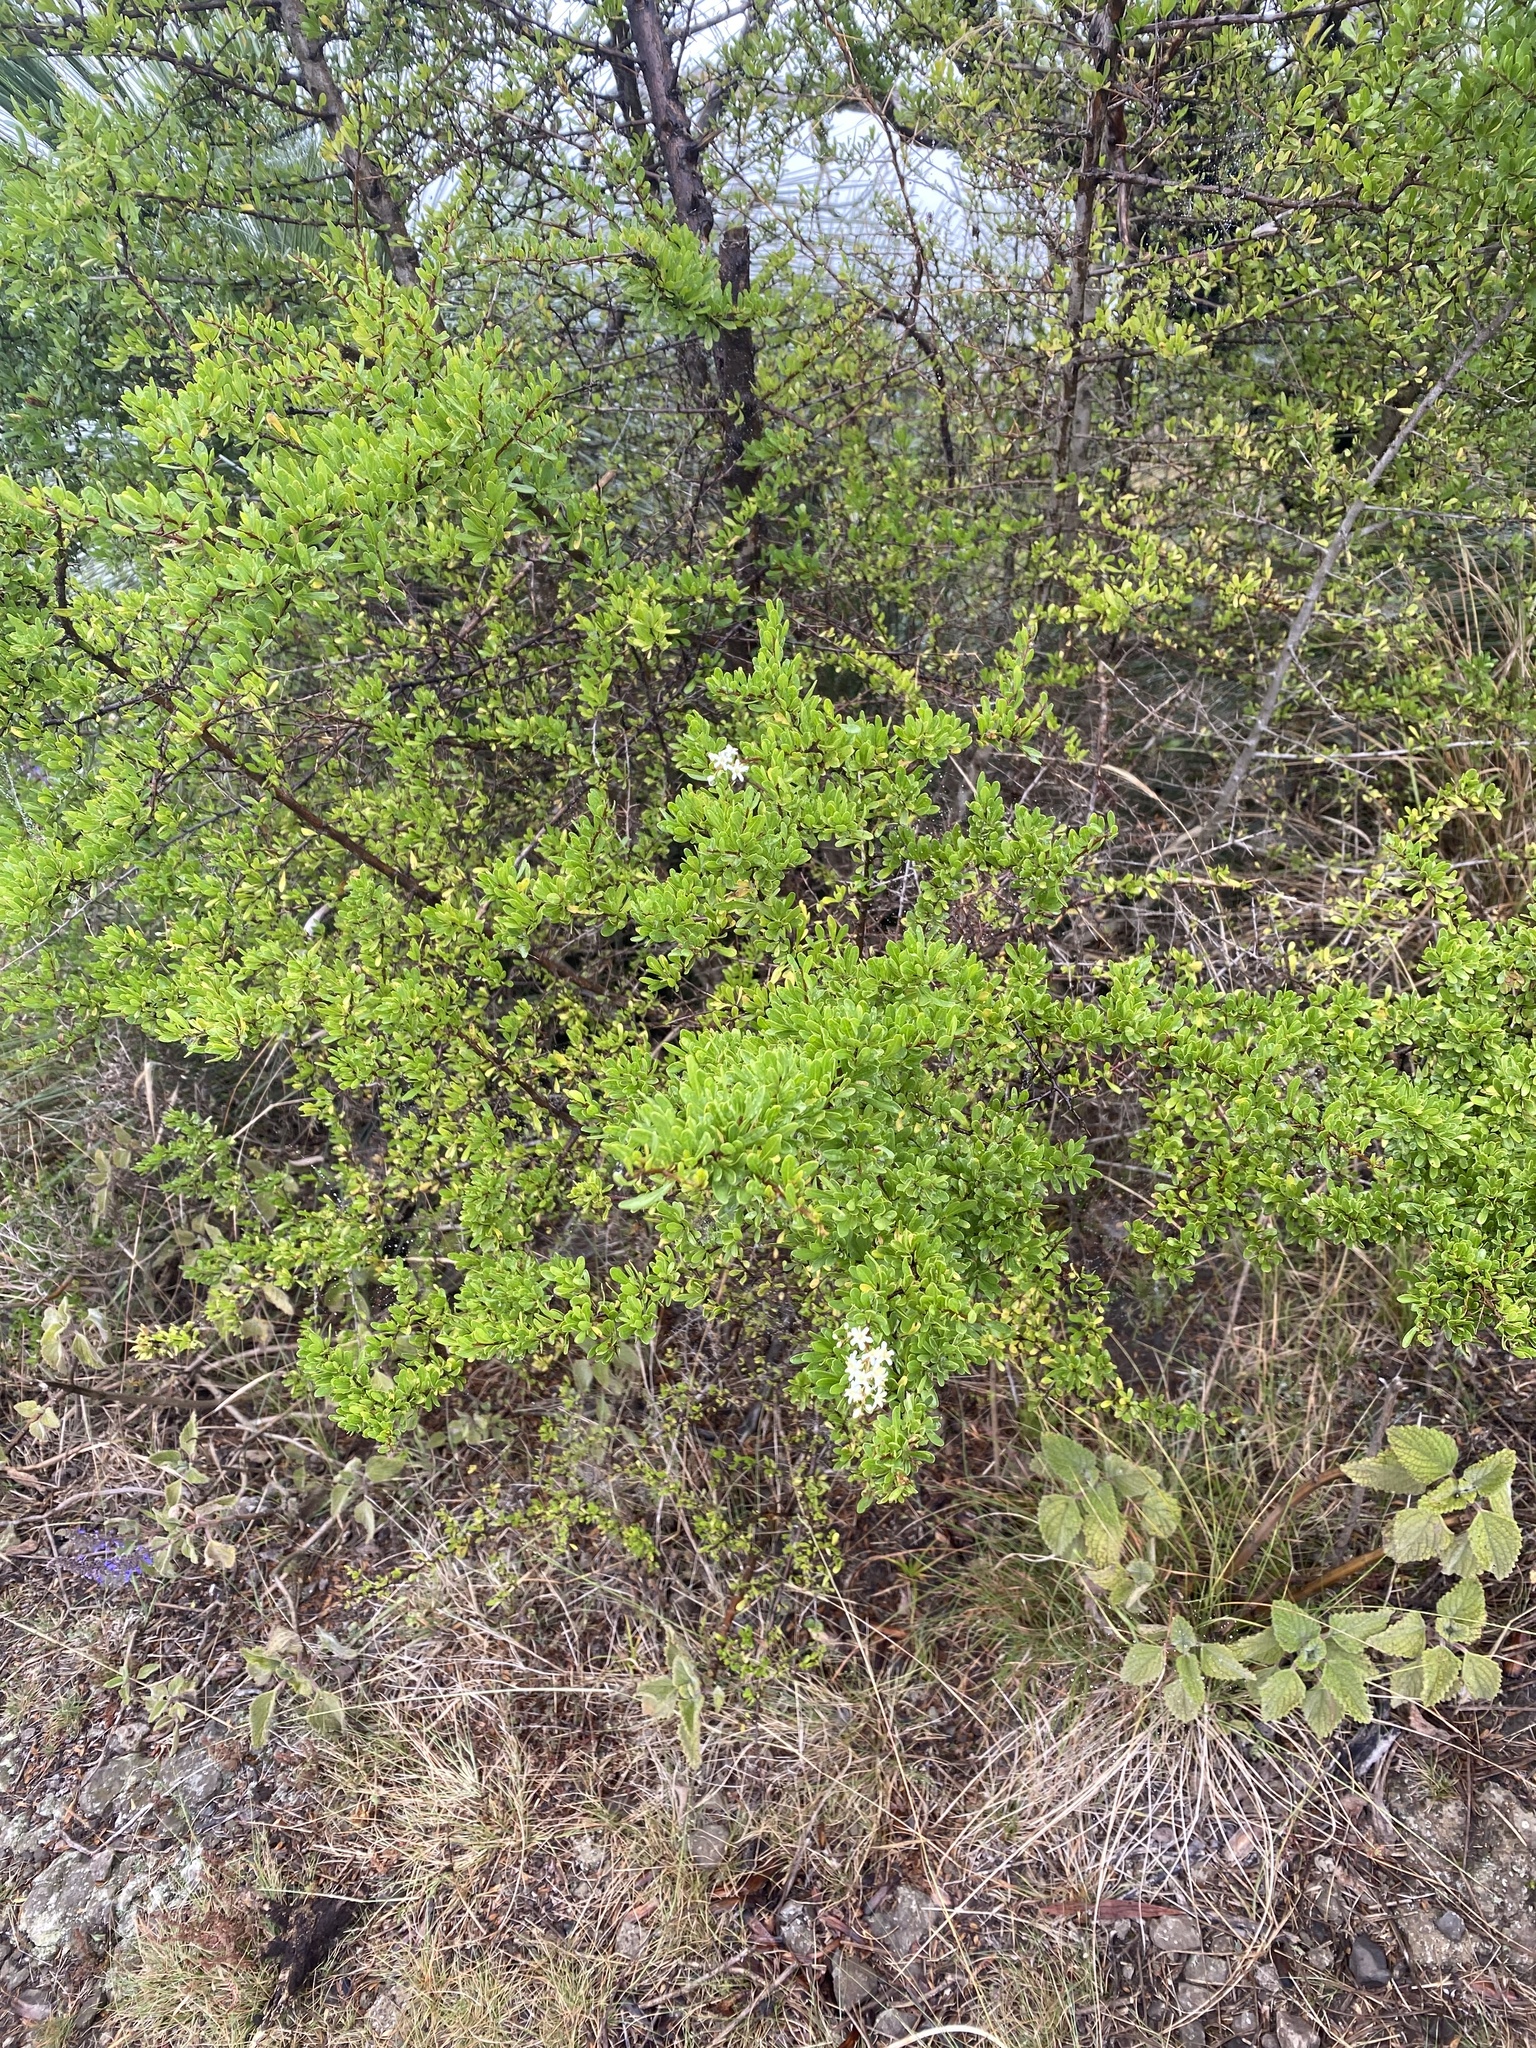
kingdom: Plantae
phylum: Tracheophyta
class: Magnoliopsida
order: Apiales
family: Pittosporaceae
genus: Bursaria
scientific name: Bursaria spinosa
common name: Australian blackthorn
